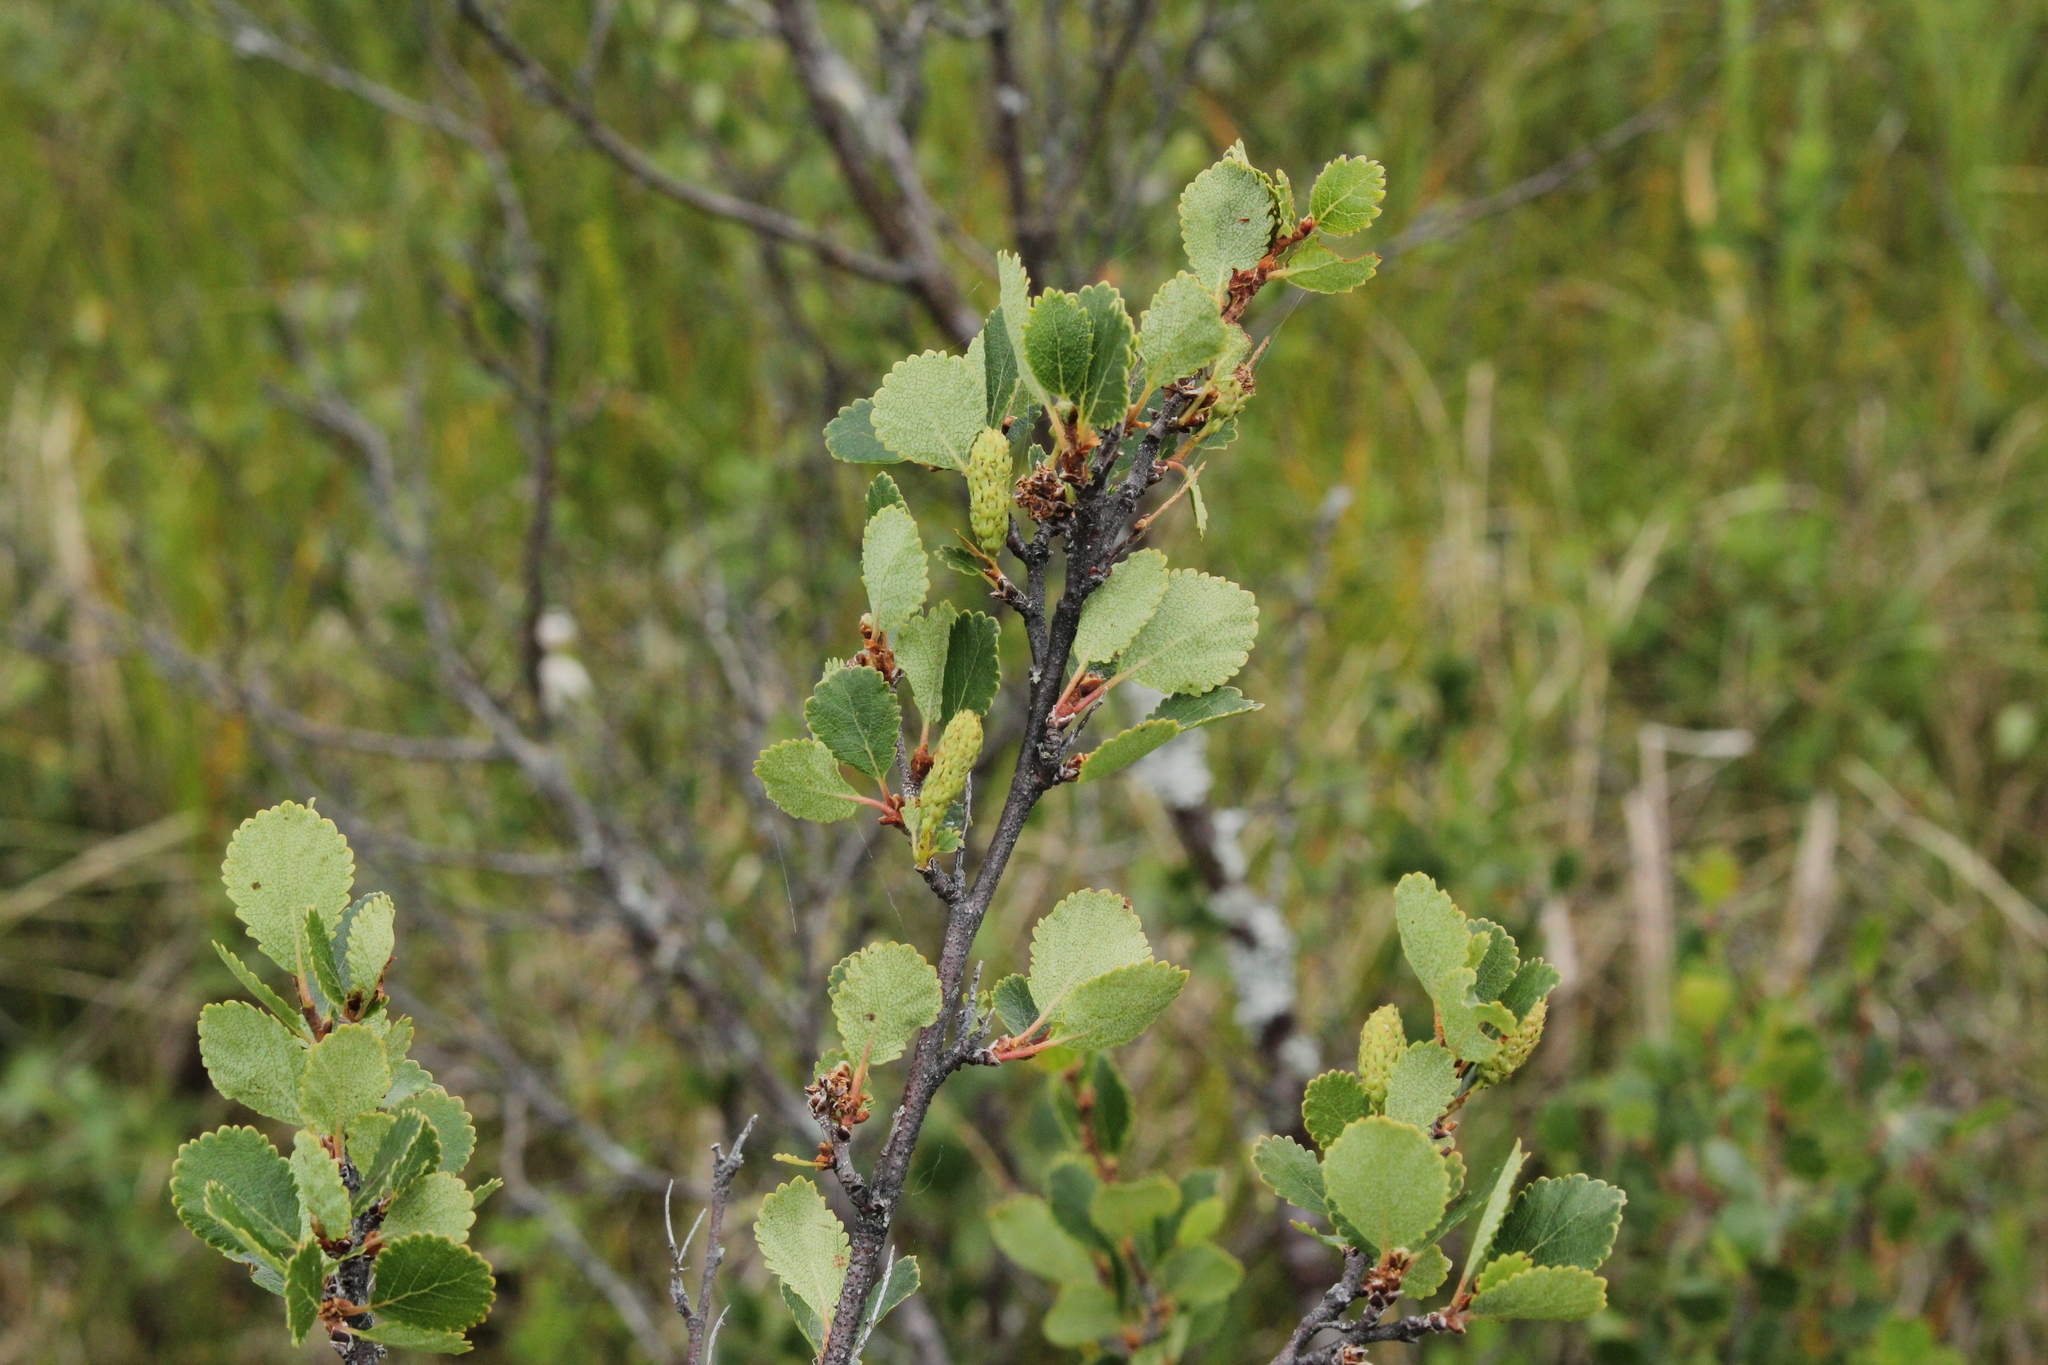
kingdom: Plantae
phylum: Tracheophyta
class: Magnoliopsida
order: Fagales
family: Betulaceae
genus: Betula
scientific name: Betula pumila
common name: Bog birch
